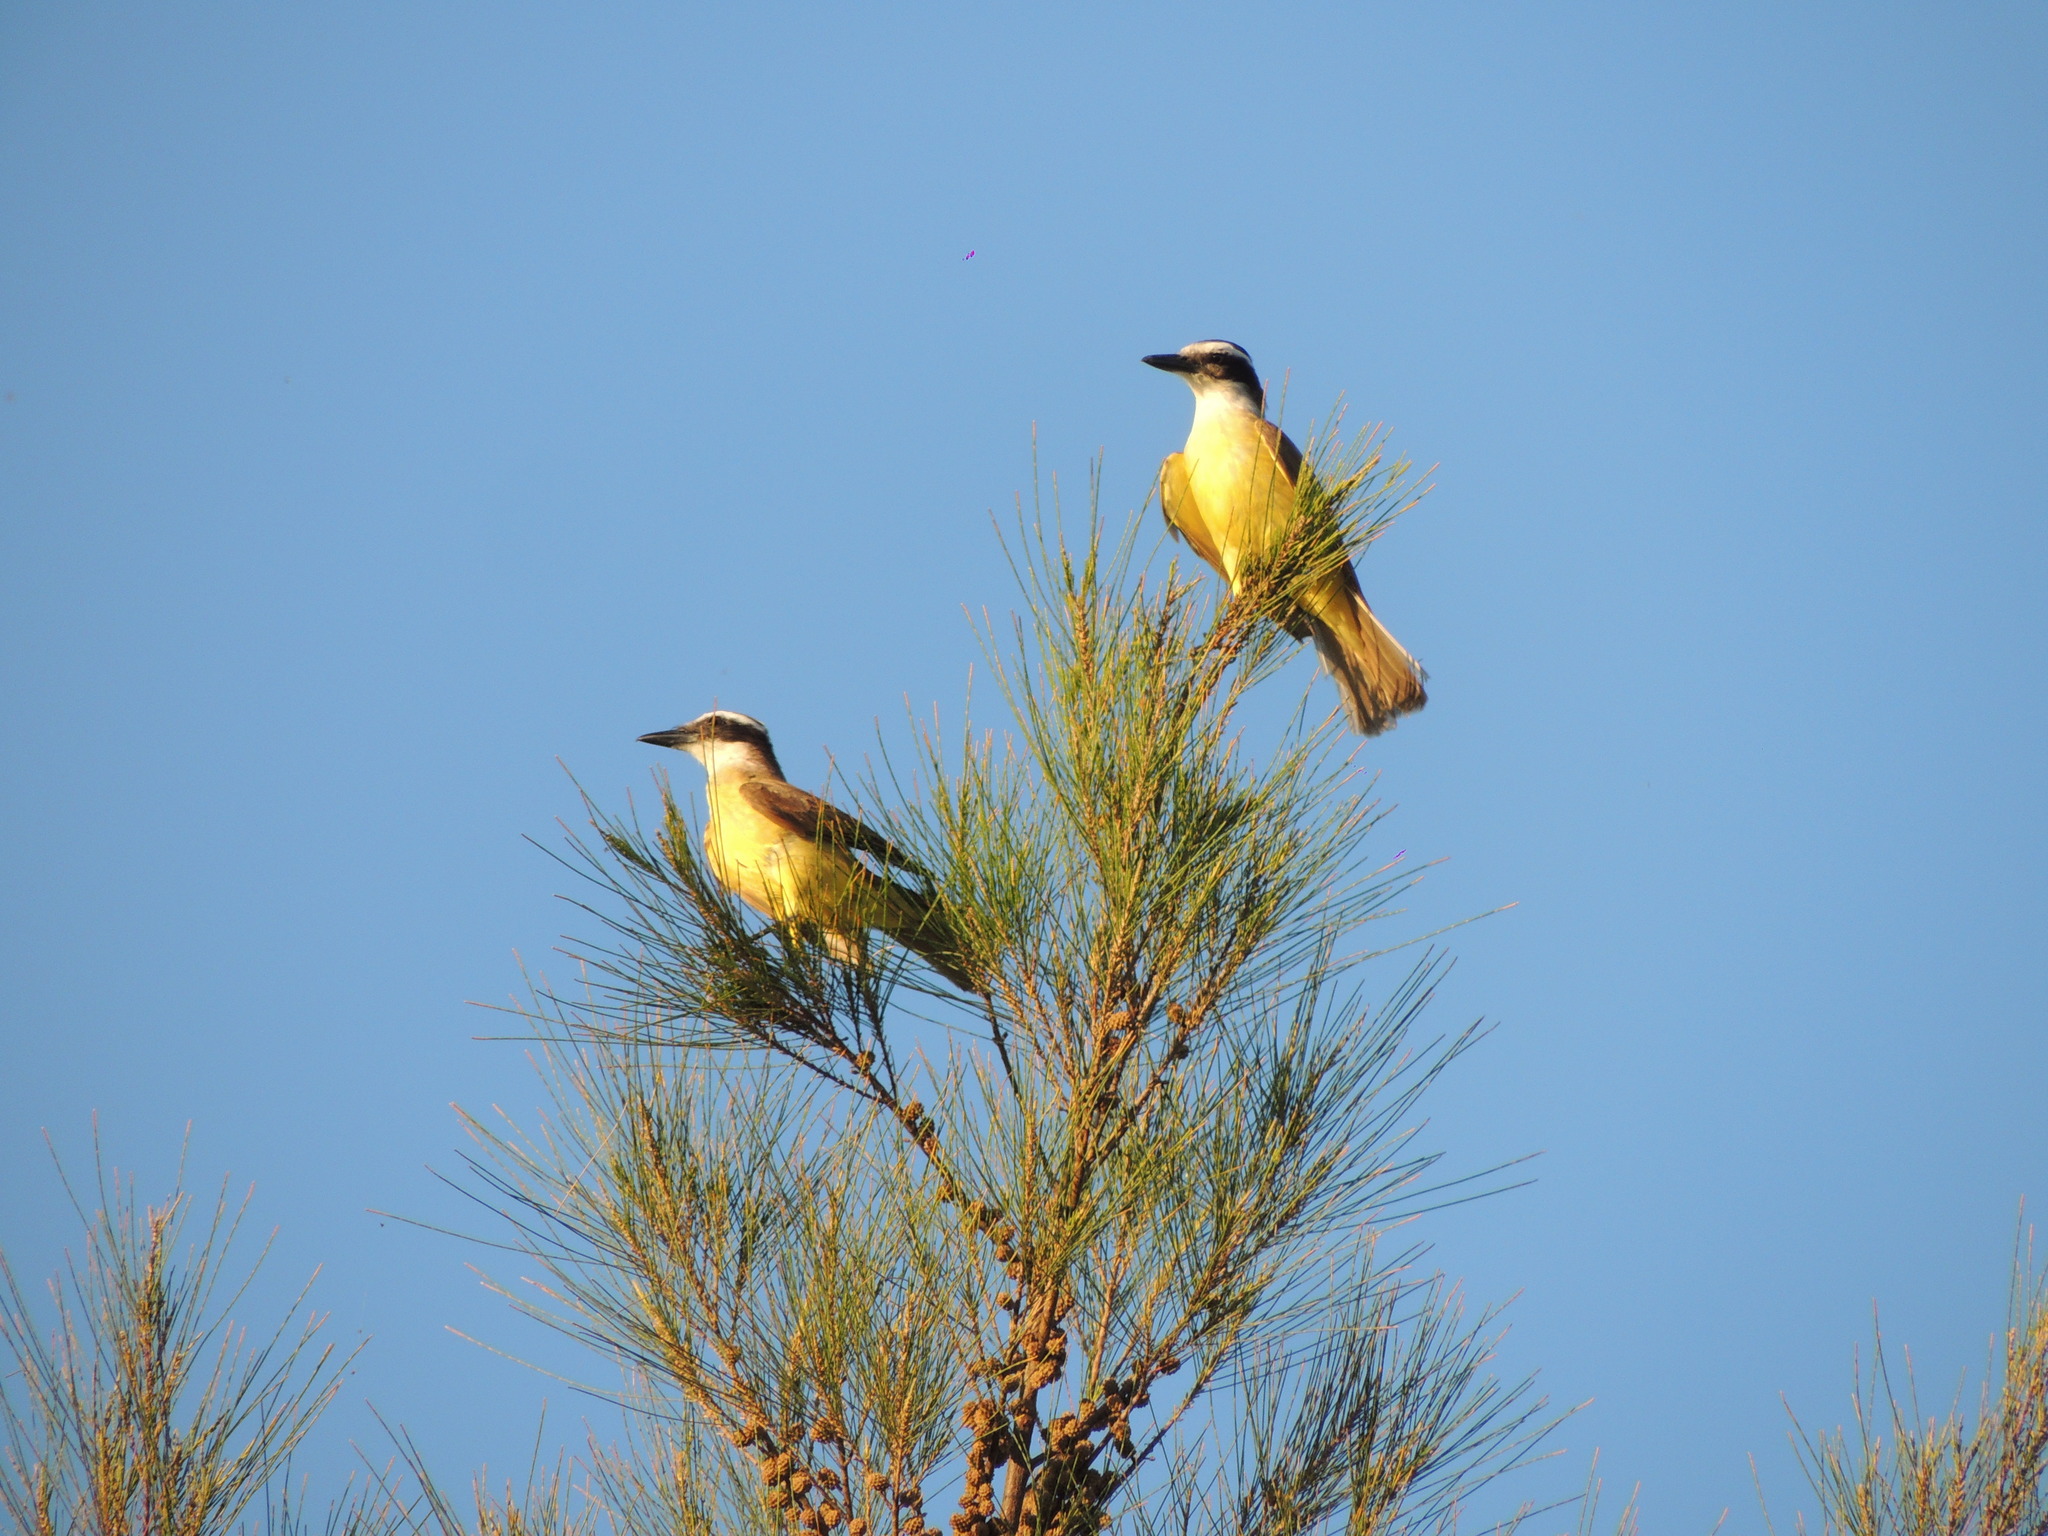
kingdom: Animalia
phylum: Chordata
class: Aves
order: Passeriformes
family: Tyrannidae
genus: Pitangus
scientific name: Pitangus sulphuratus
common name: Great kiskadee
